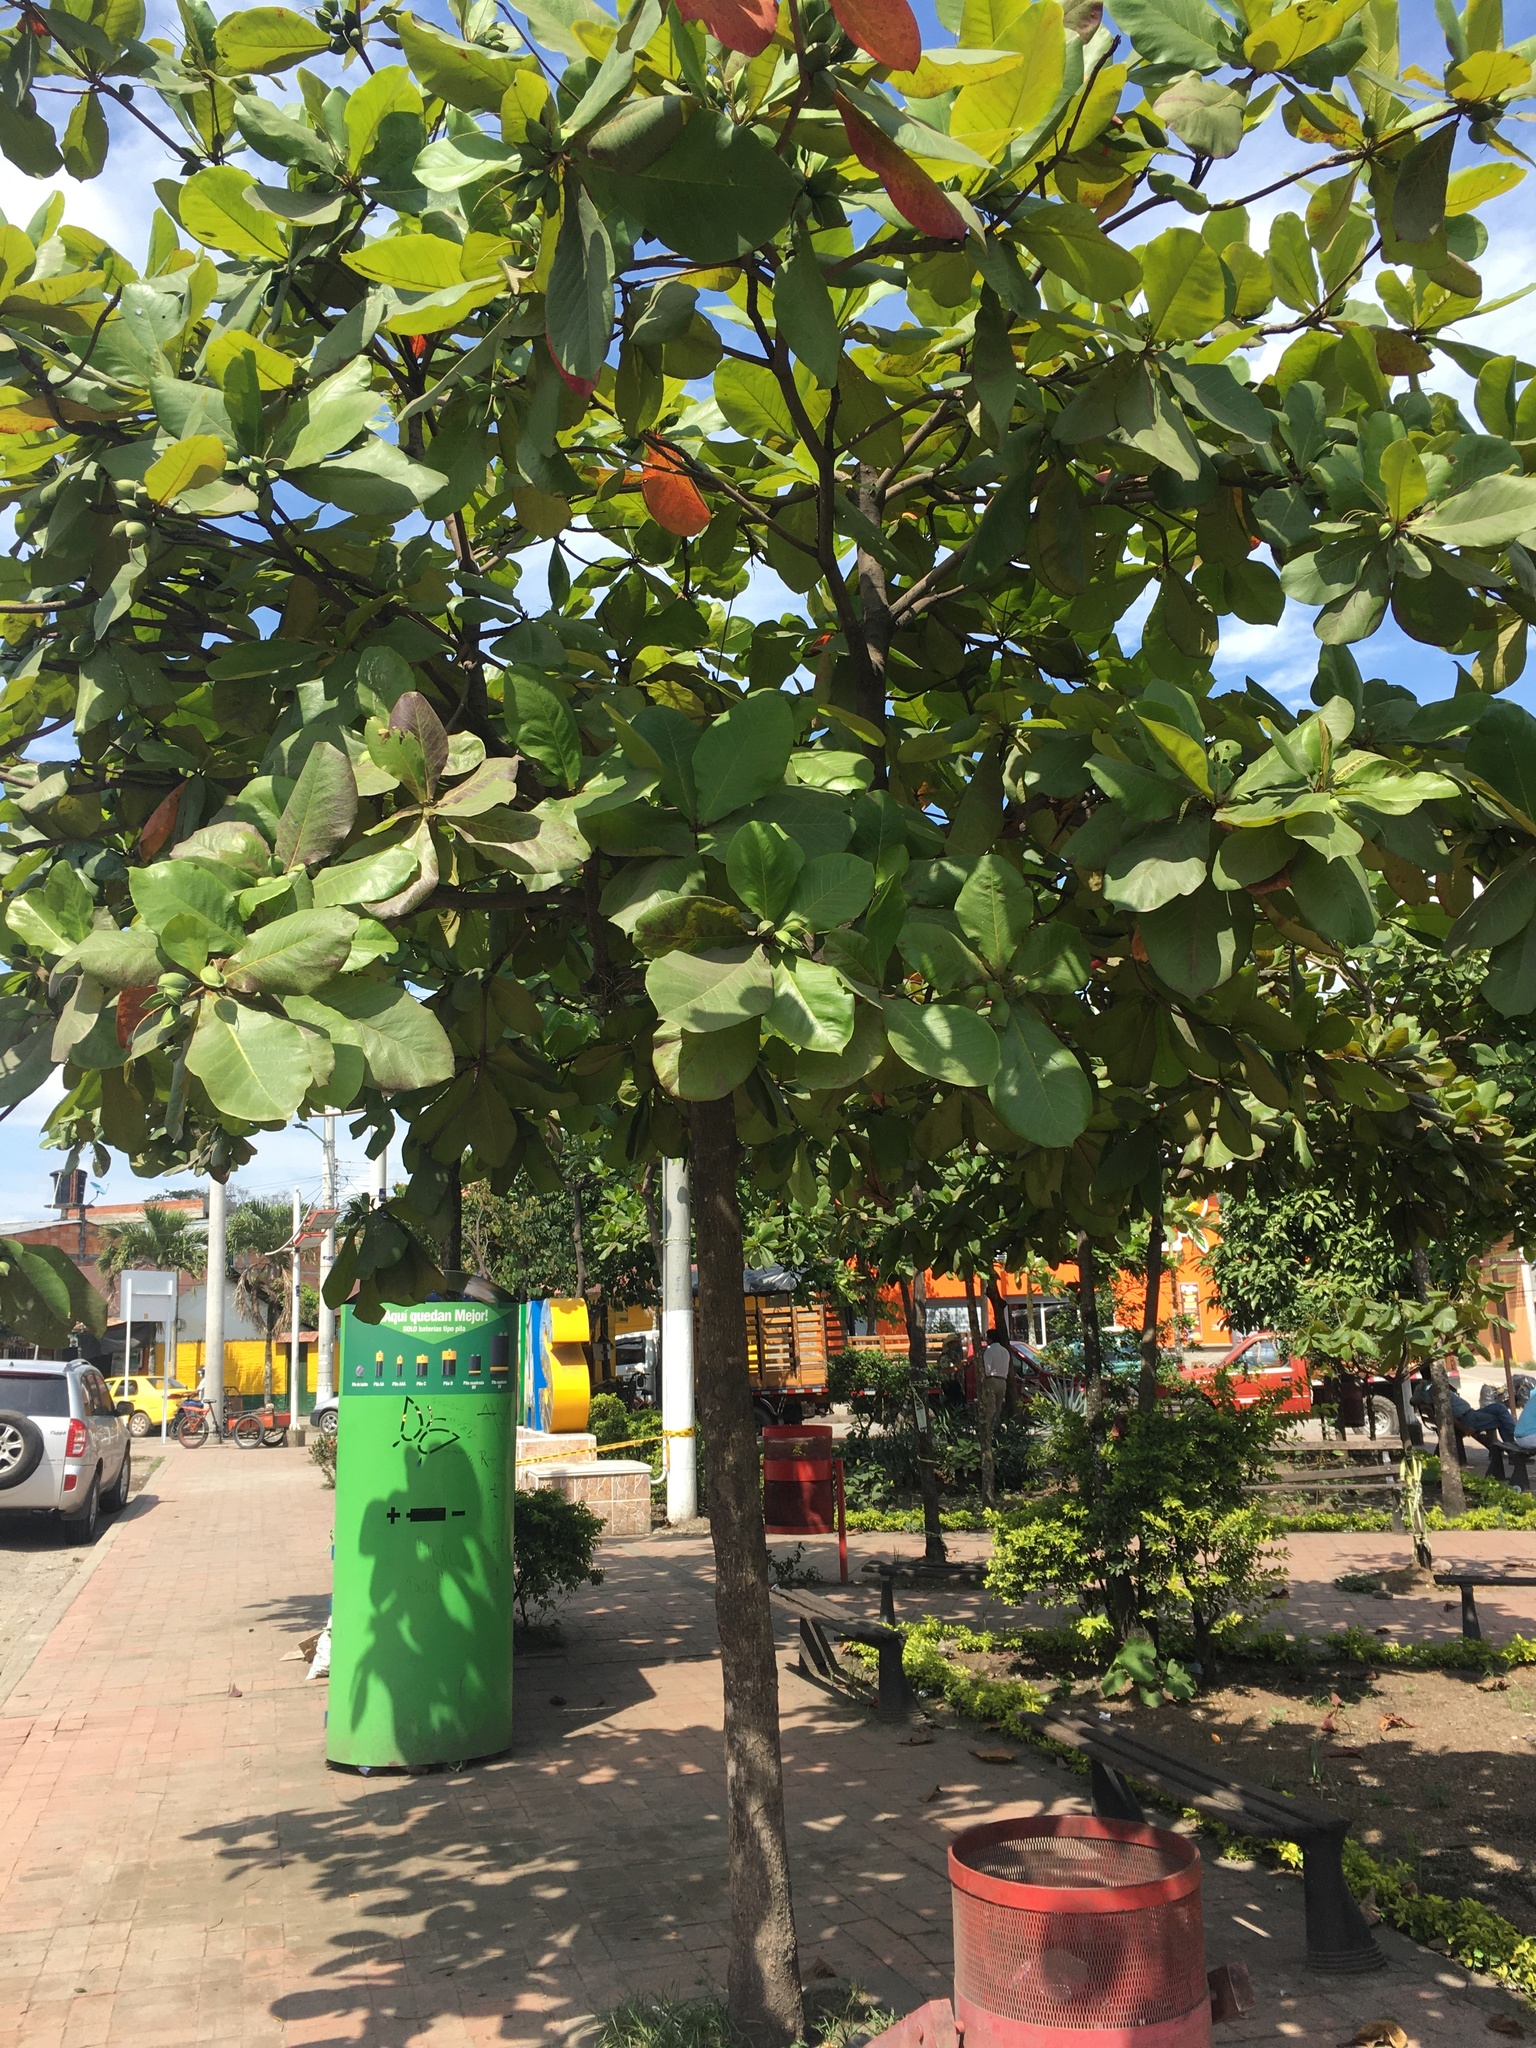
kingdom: Plantae
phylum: Tracheophyta
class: Magnoliopsida
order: Myrtales
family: Combretaceae
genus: Terminalia
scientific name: Terminalia catappa
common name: Tropical almond
